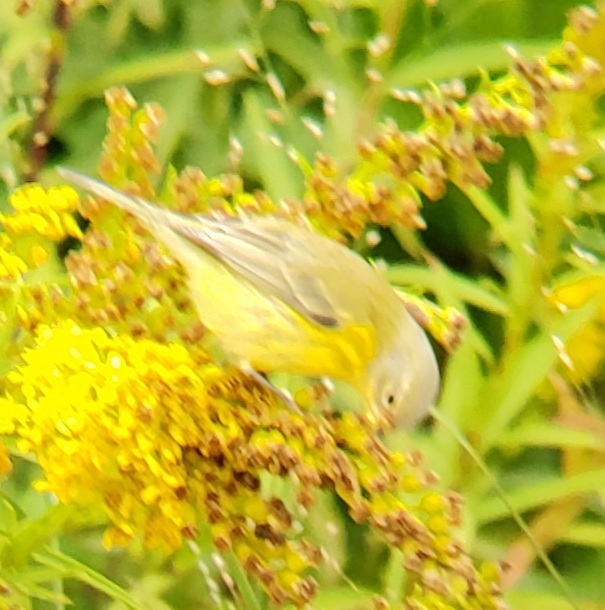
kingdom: Animalia
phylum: Chordata
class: Aves
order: Passeriformes
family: Parulidae
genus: Setophaga
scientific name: Setophaga discolor
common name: Prairie warbler
